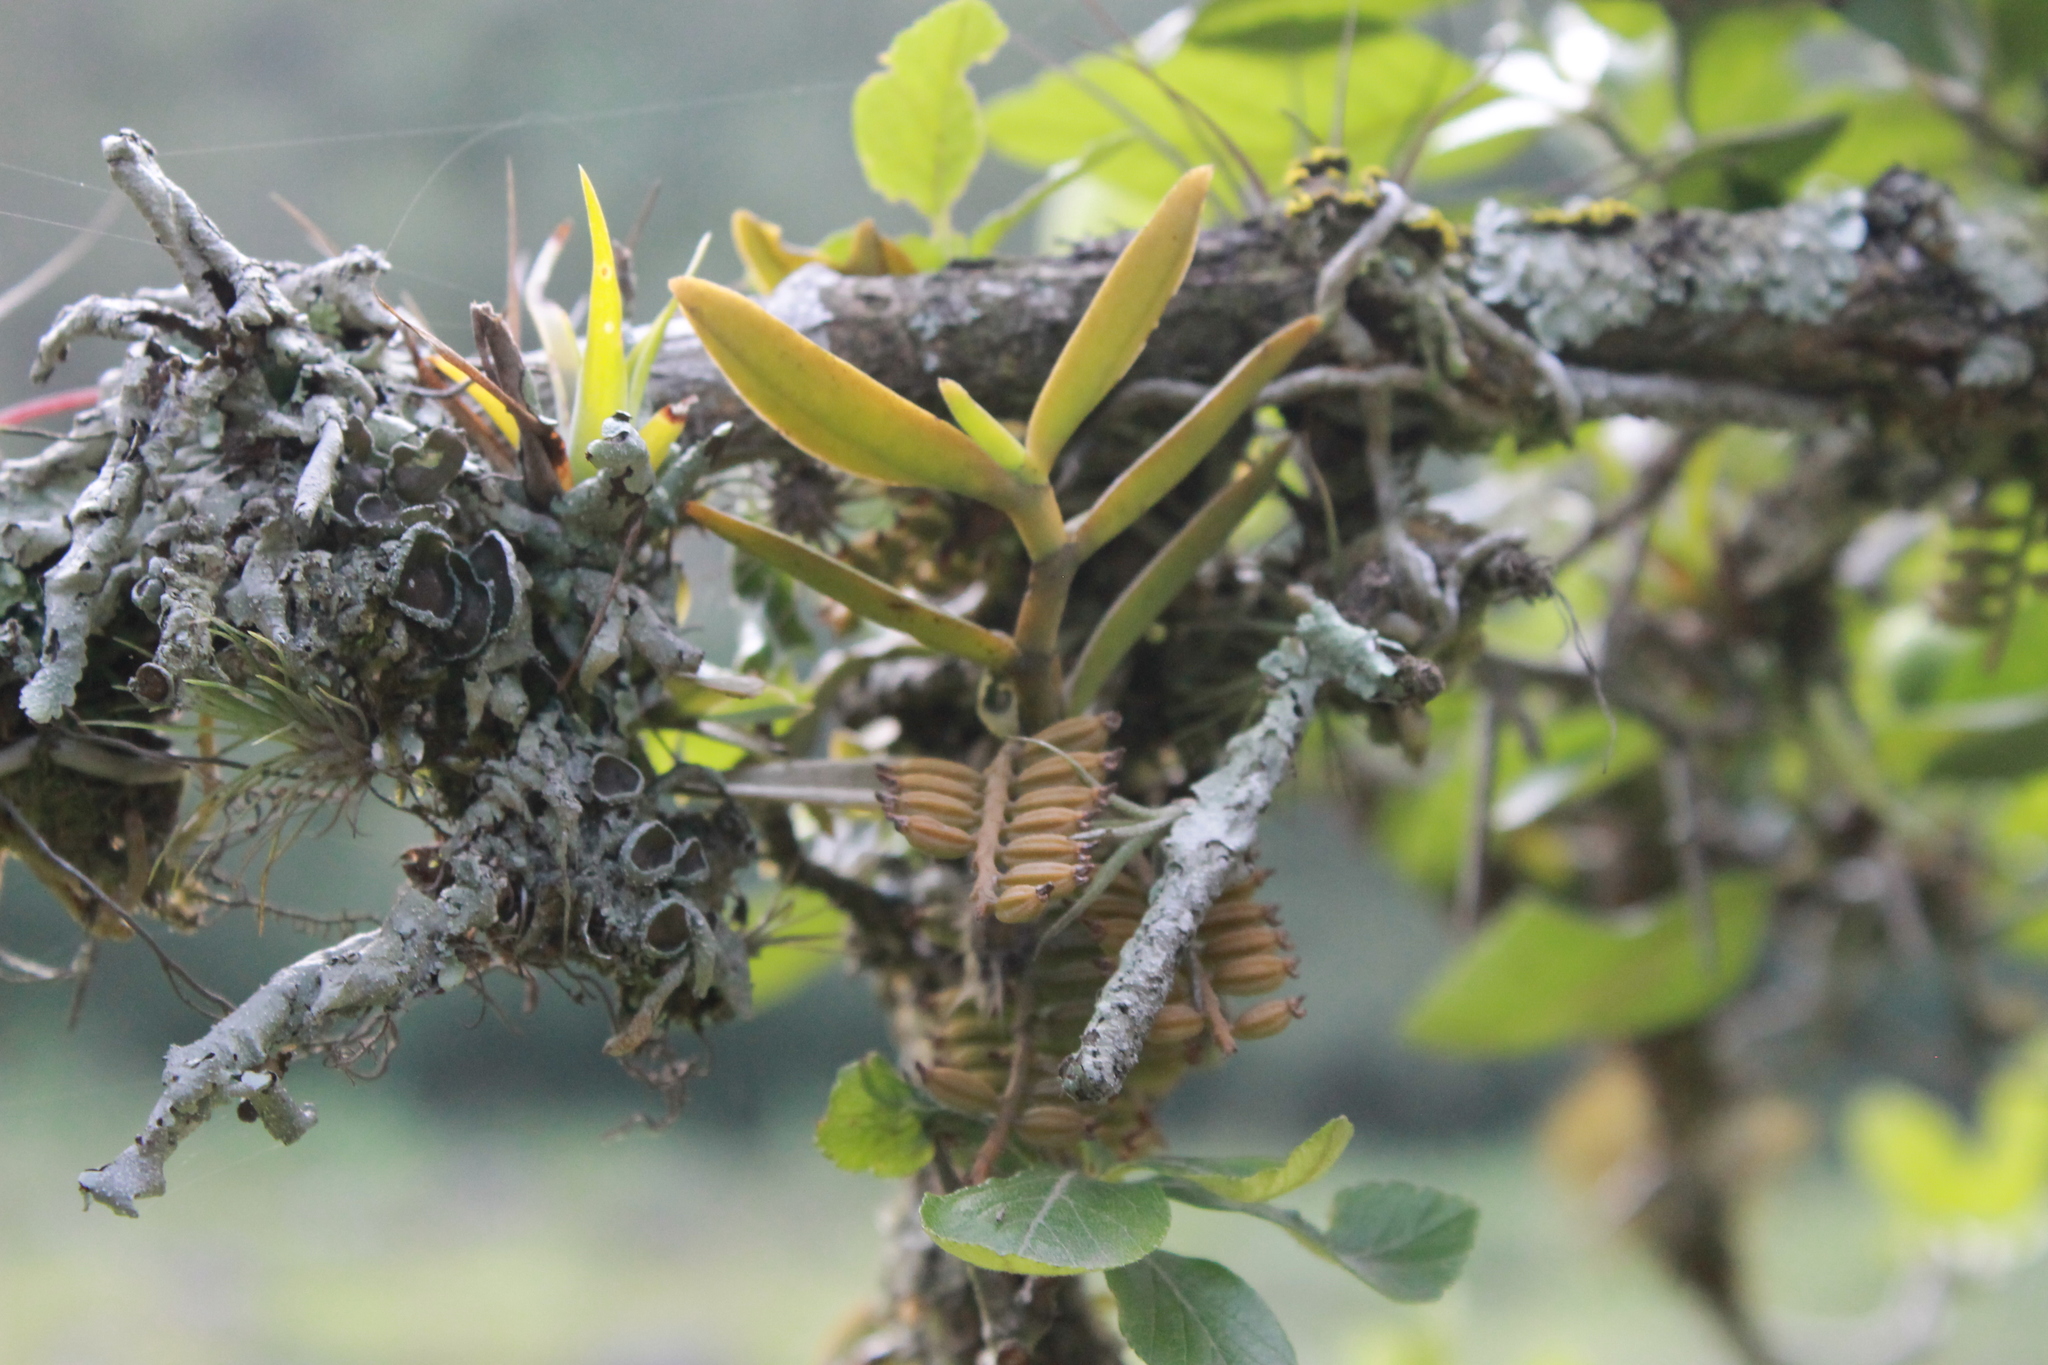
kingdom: Plantae
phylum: Tracheophyta
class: Liliopsida
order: Asparagales
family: Orchidaceae
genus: Campylocentrum
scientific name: Campylocentrum micranthum
